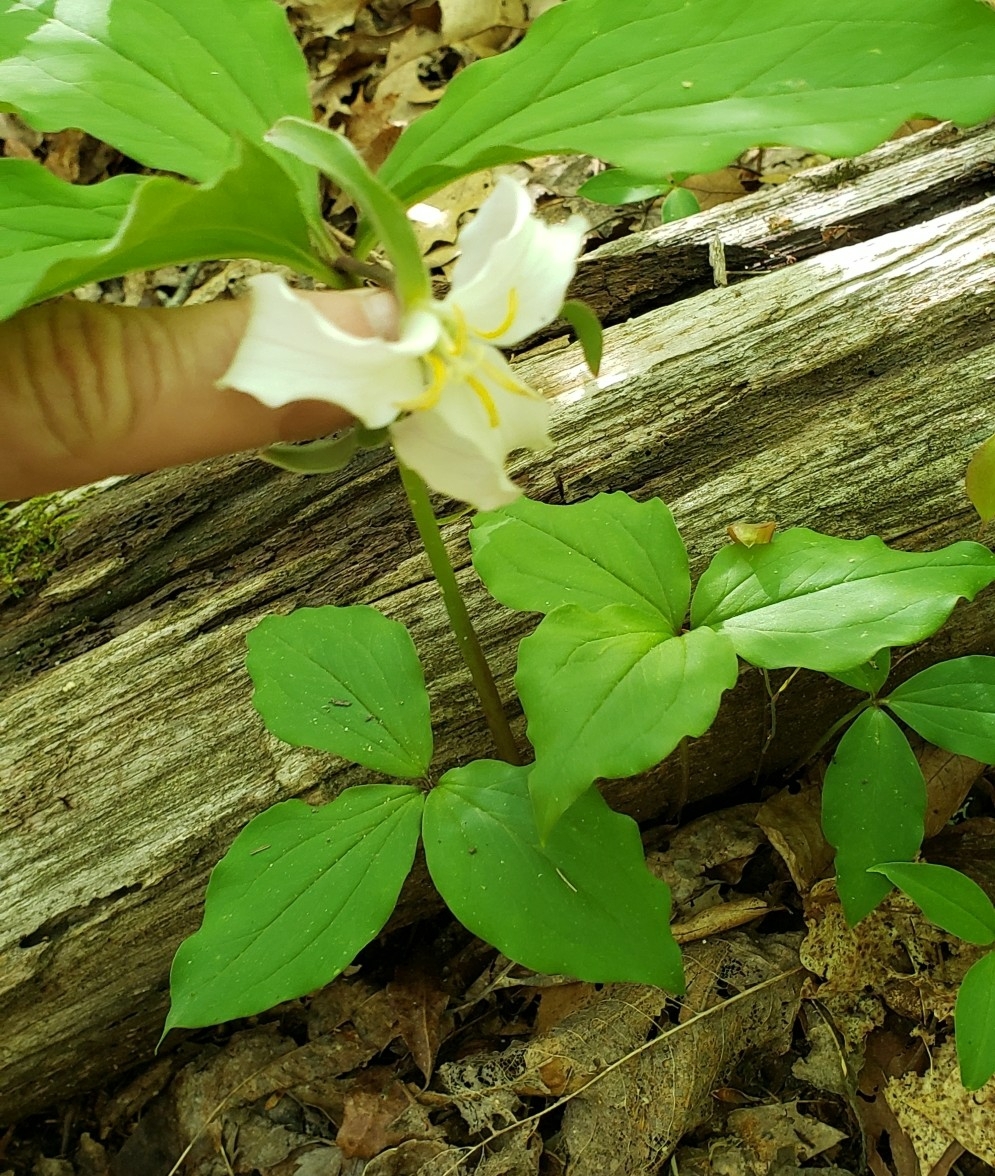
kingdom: Plantae
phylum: Tracheophyta
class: Liliopsida
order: Liliales
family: Melanthiaceae
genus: Trillium
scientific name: Trillium catesbaei
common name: Bashful trillium
